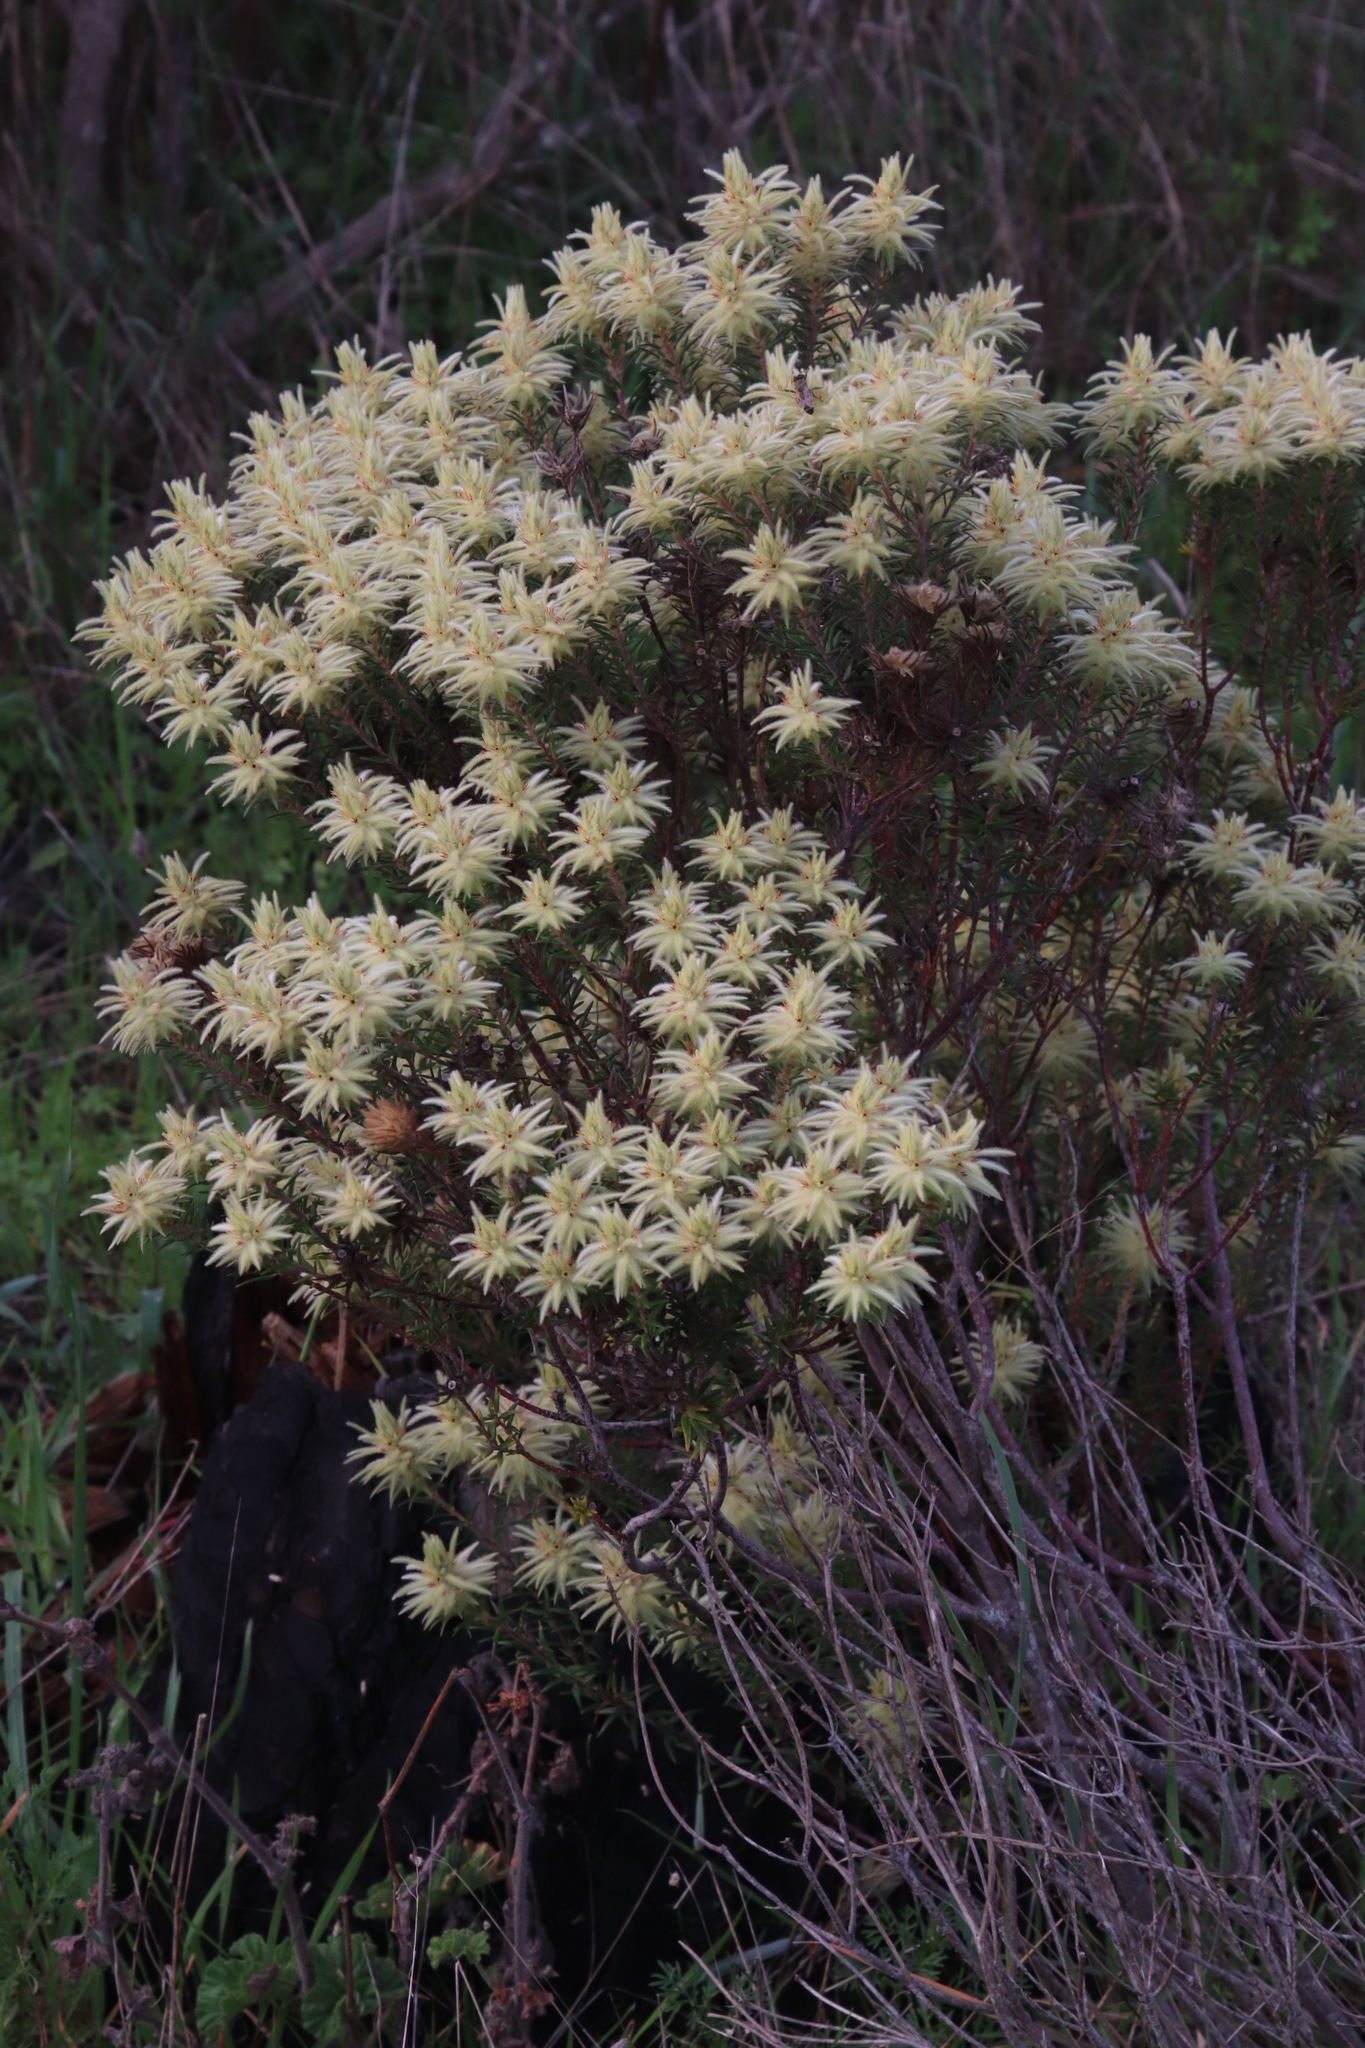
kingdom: Plantae
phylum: Tracheophyta
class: Magnoliopsida
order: Rosales
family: Rhamnaceae
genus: Phylica
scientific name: Phylica pubescens
